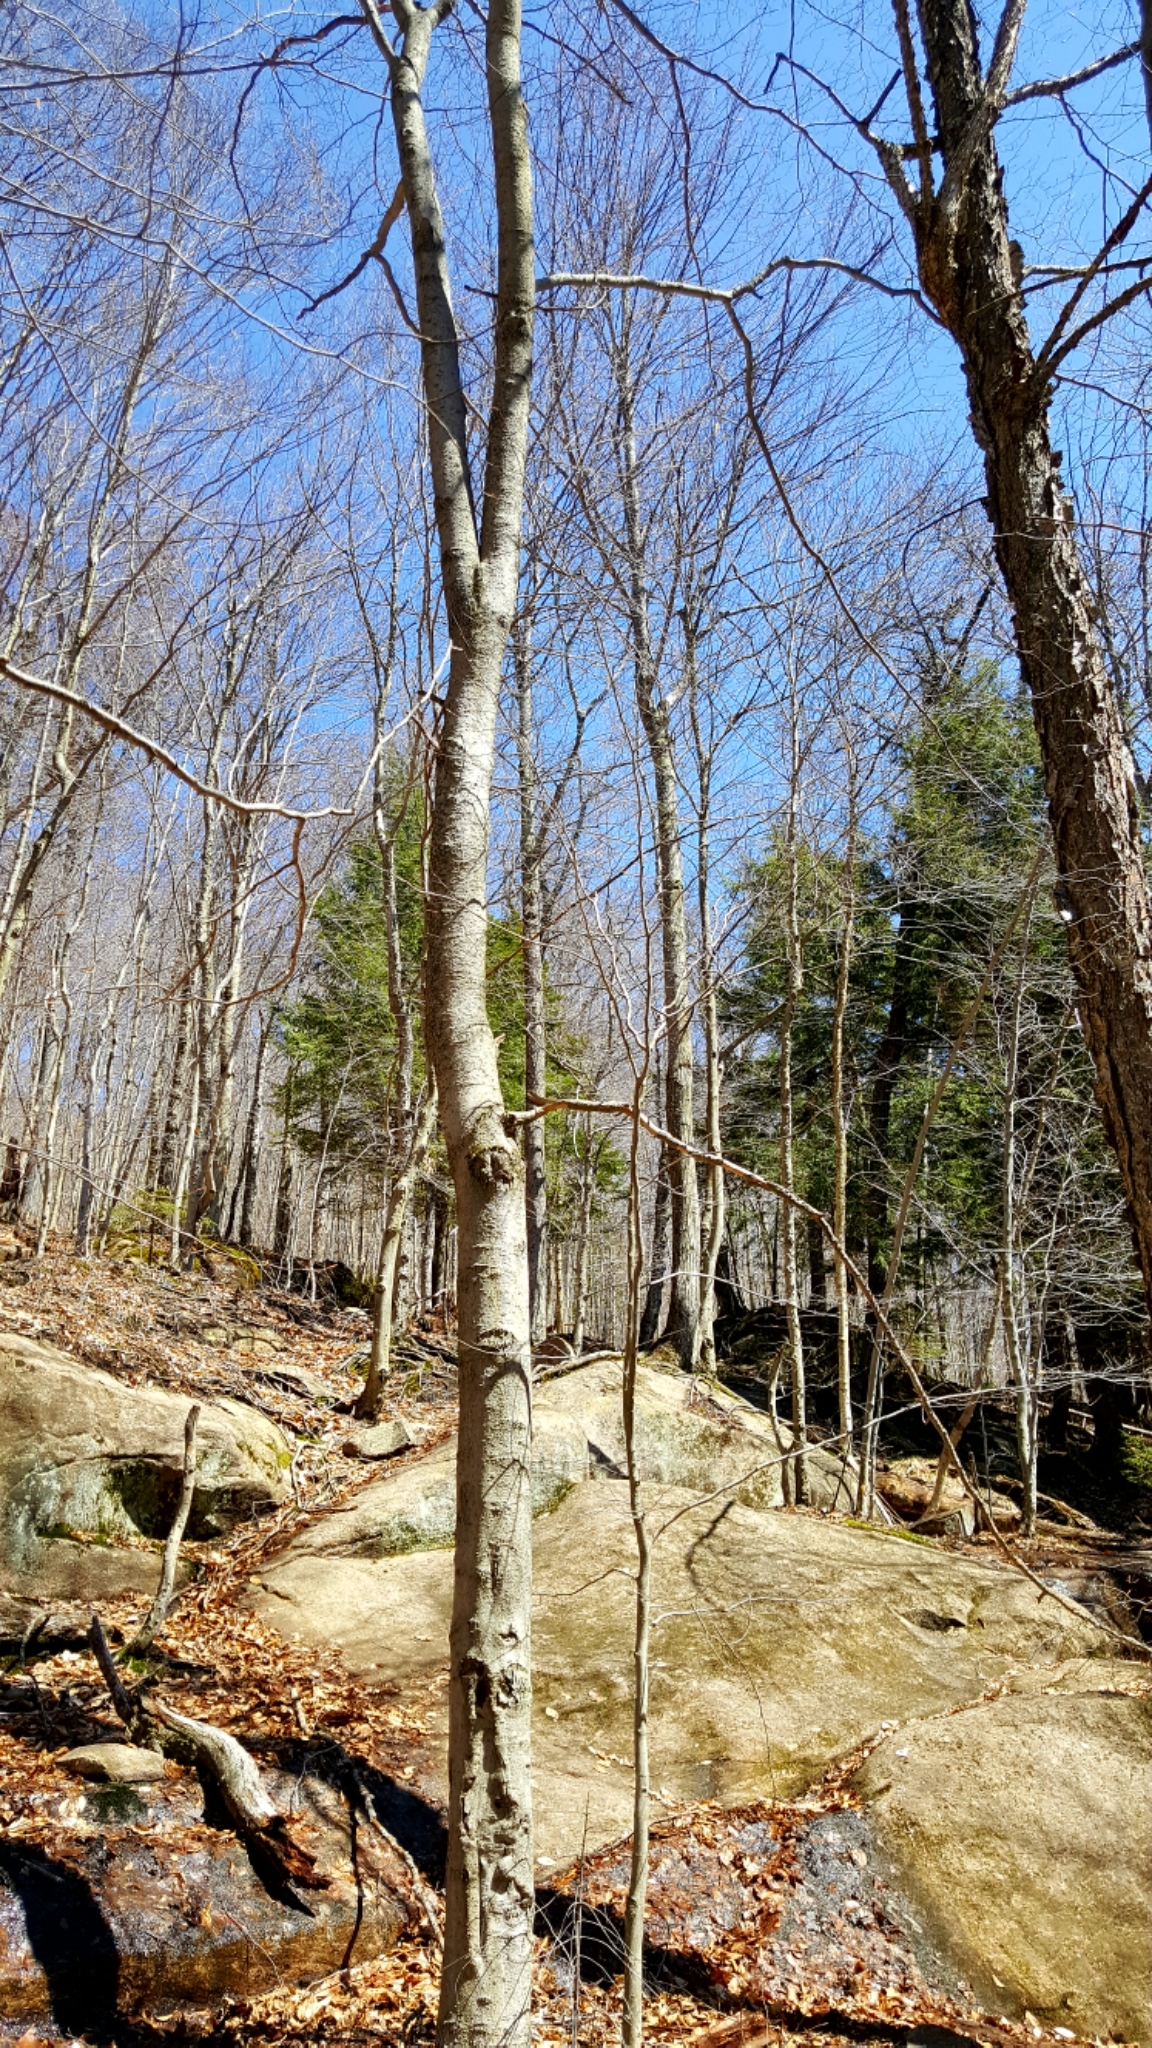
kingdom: Plantae
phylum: Tracheophyta
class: Magnoliopsida
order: Fagales
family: Fagaceae
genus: Fagus
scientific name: Fagus grandifolia
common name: American beech
